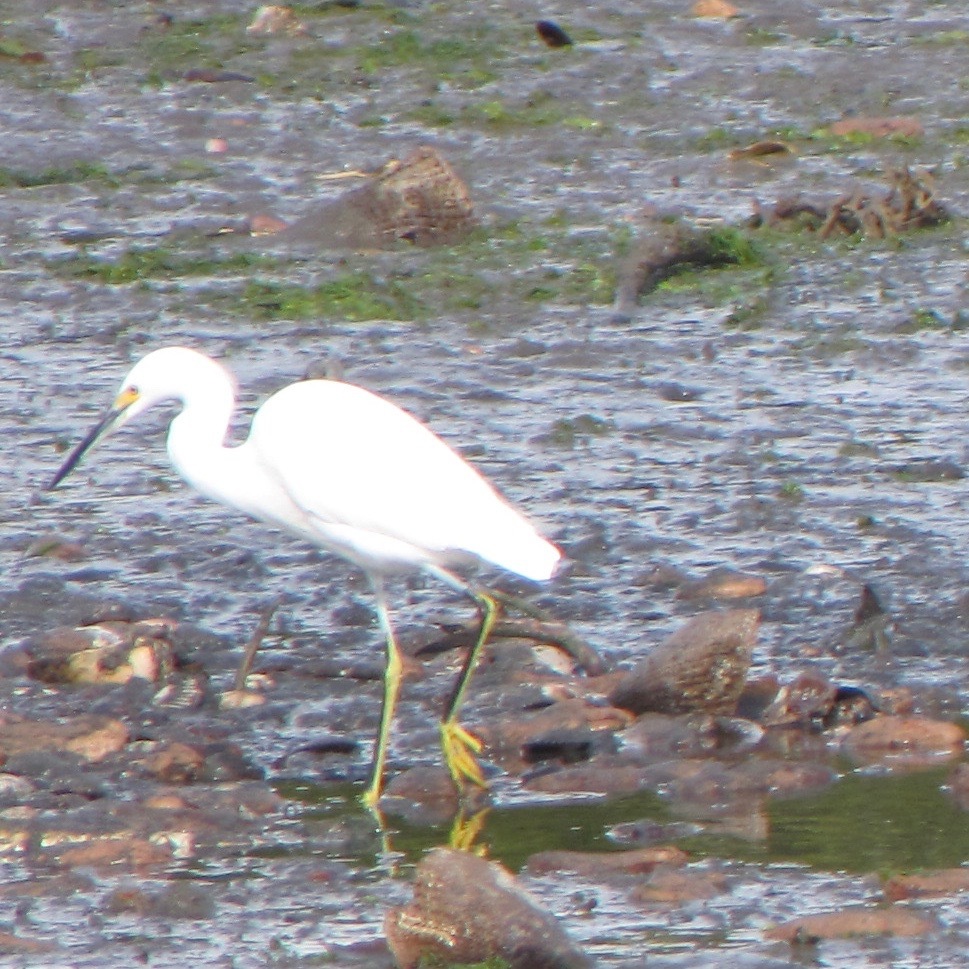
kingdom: Animalia
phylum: Chordata
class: Aves
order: Pelecaniformes
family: Ardeidae
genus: Egretta
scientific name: Egretta thula
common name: Snowy egret
